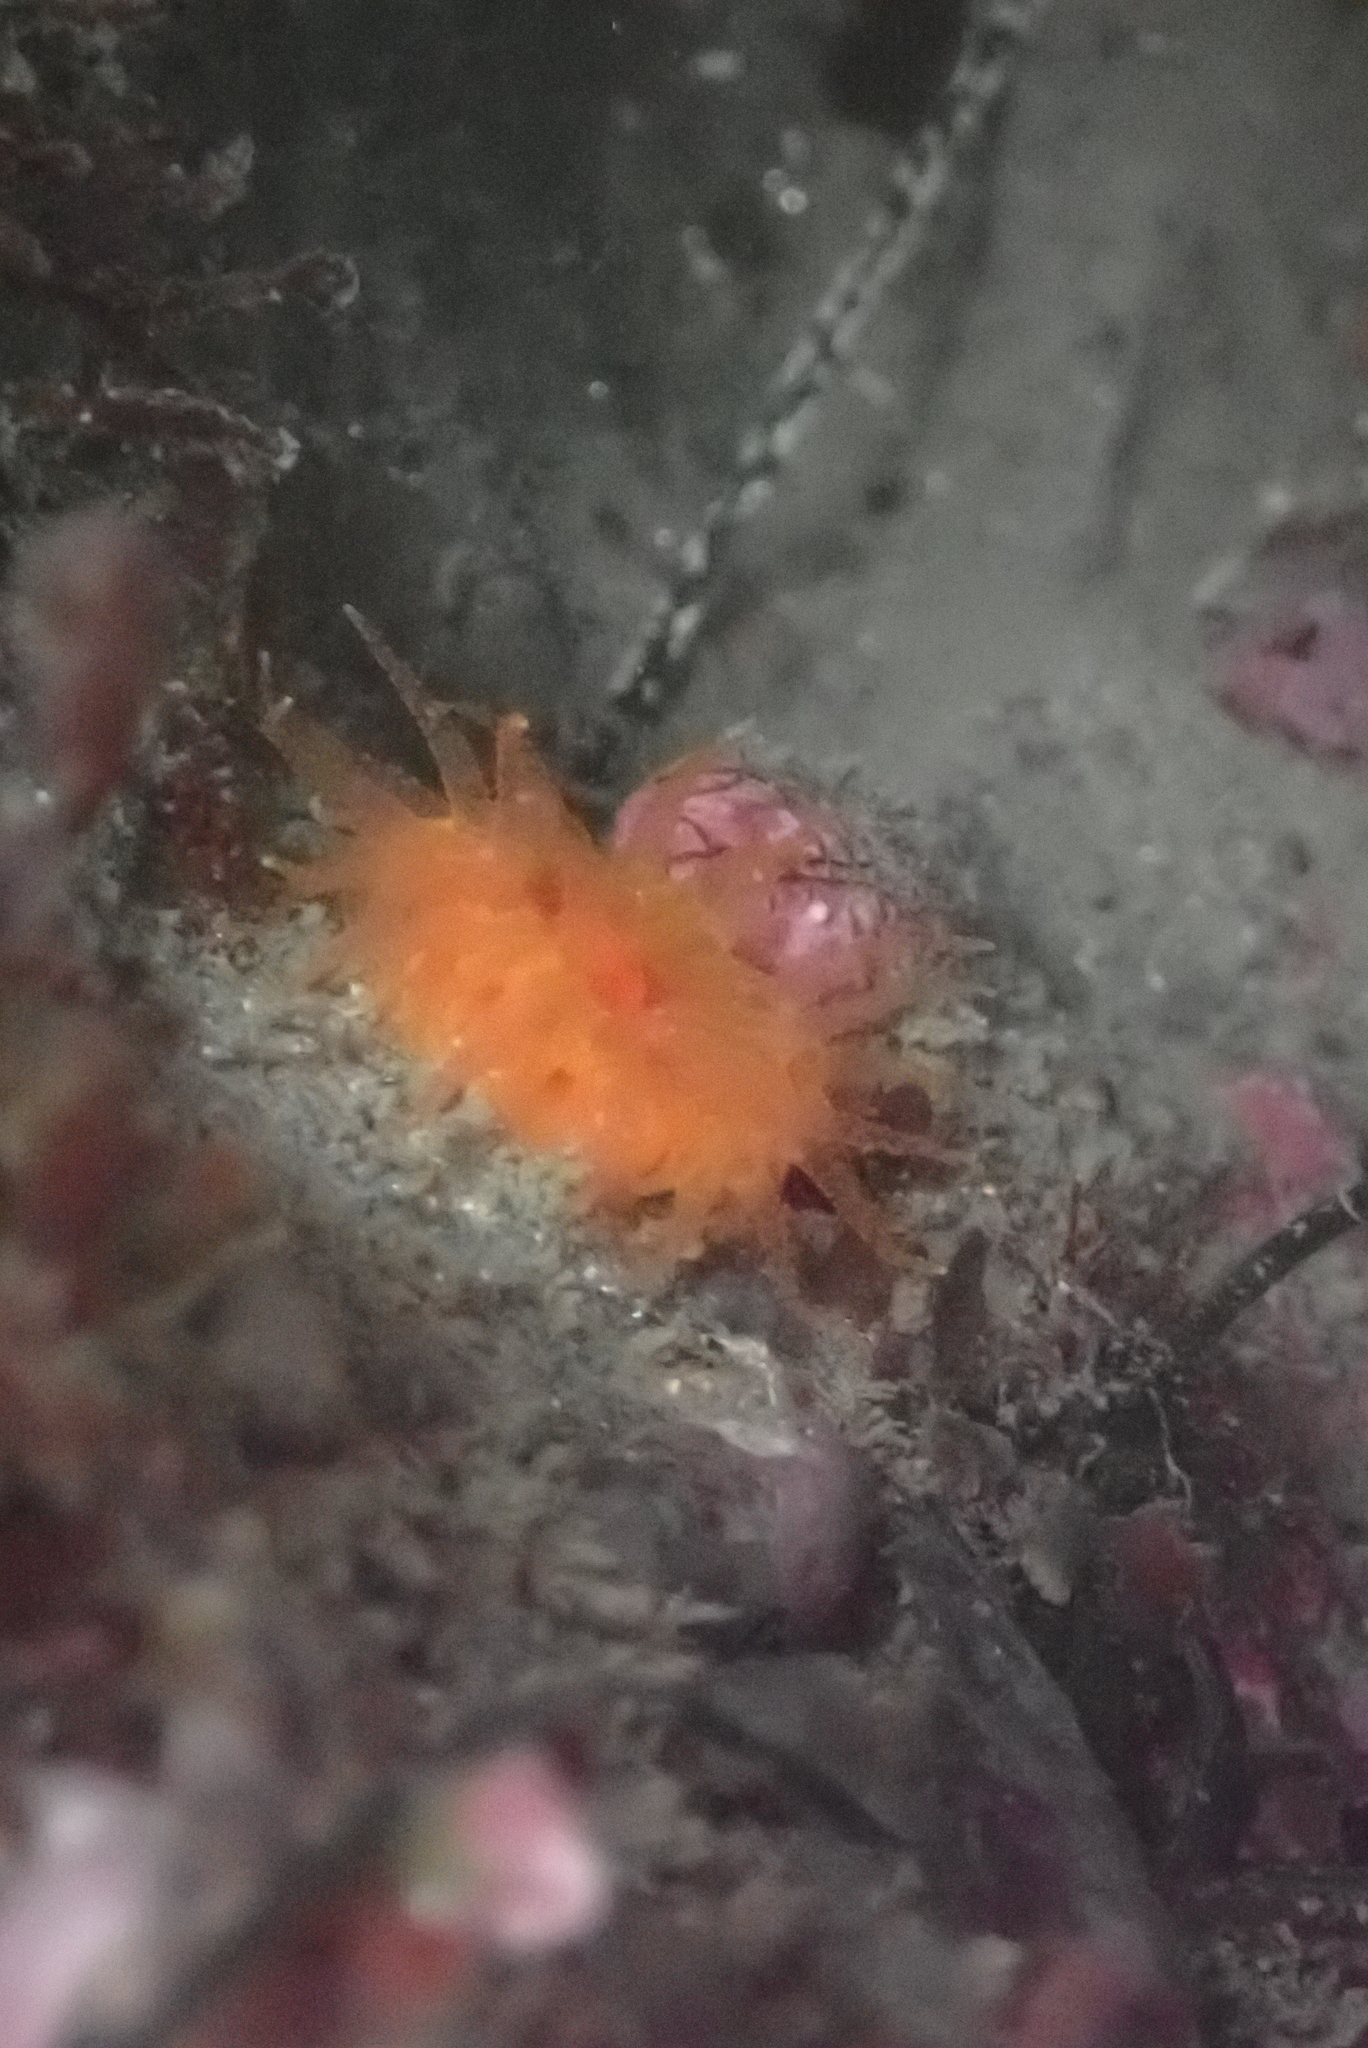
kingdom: Animalia
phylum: Cnidaria
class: Anthozoa
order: Scleractinia
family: Dendrophylliidae
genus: Balanophyllia
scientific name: Balanophyllia elegans
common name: Orange stony coral
